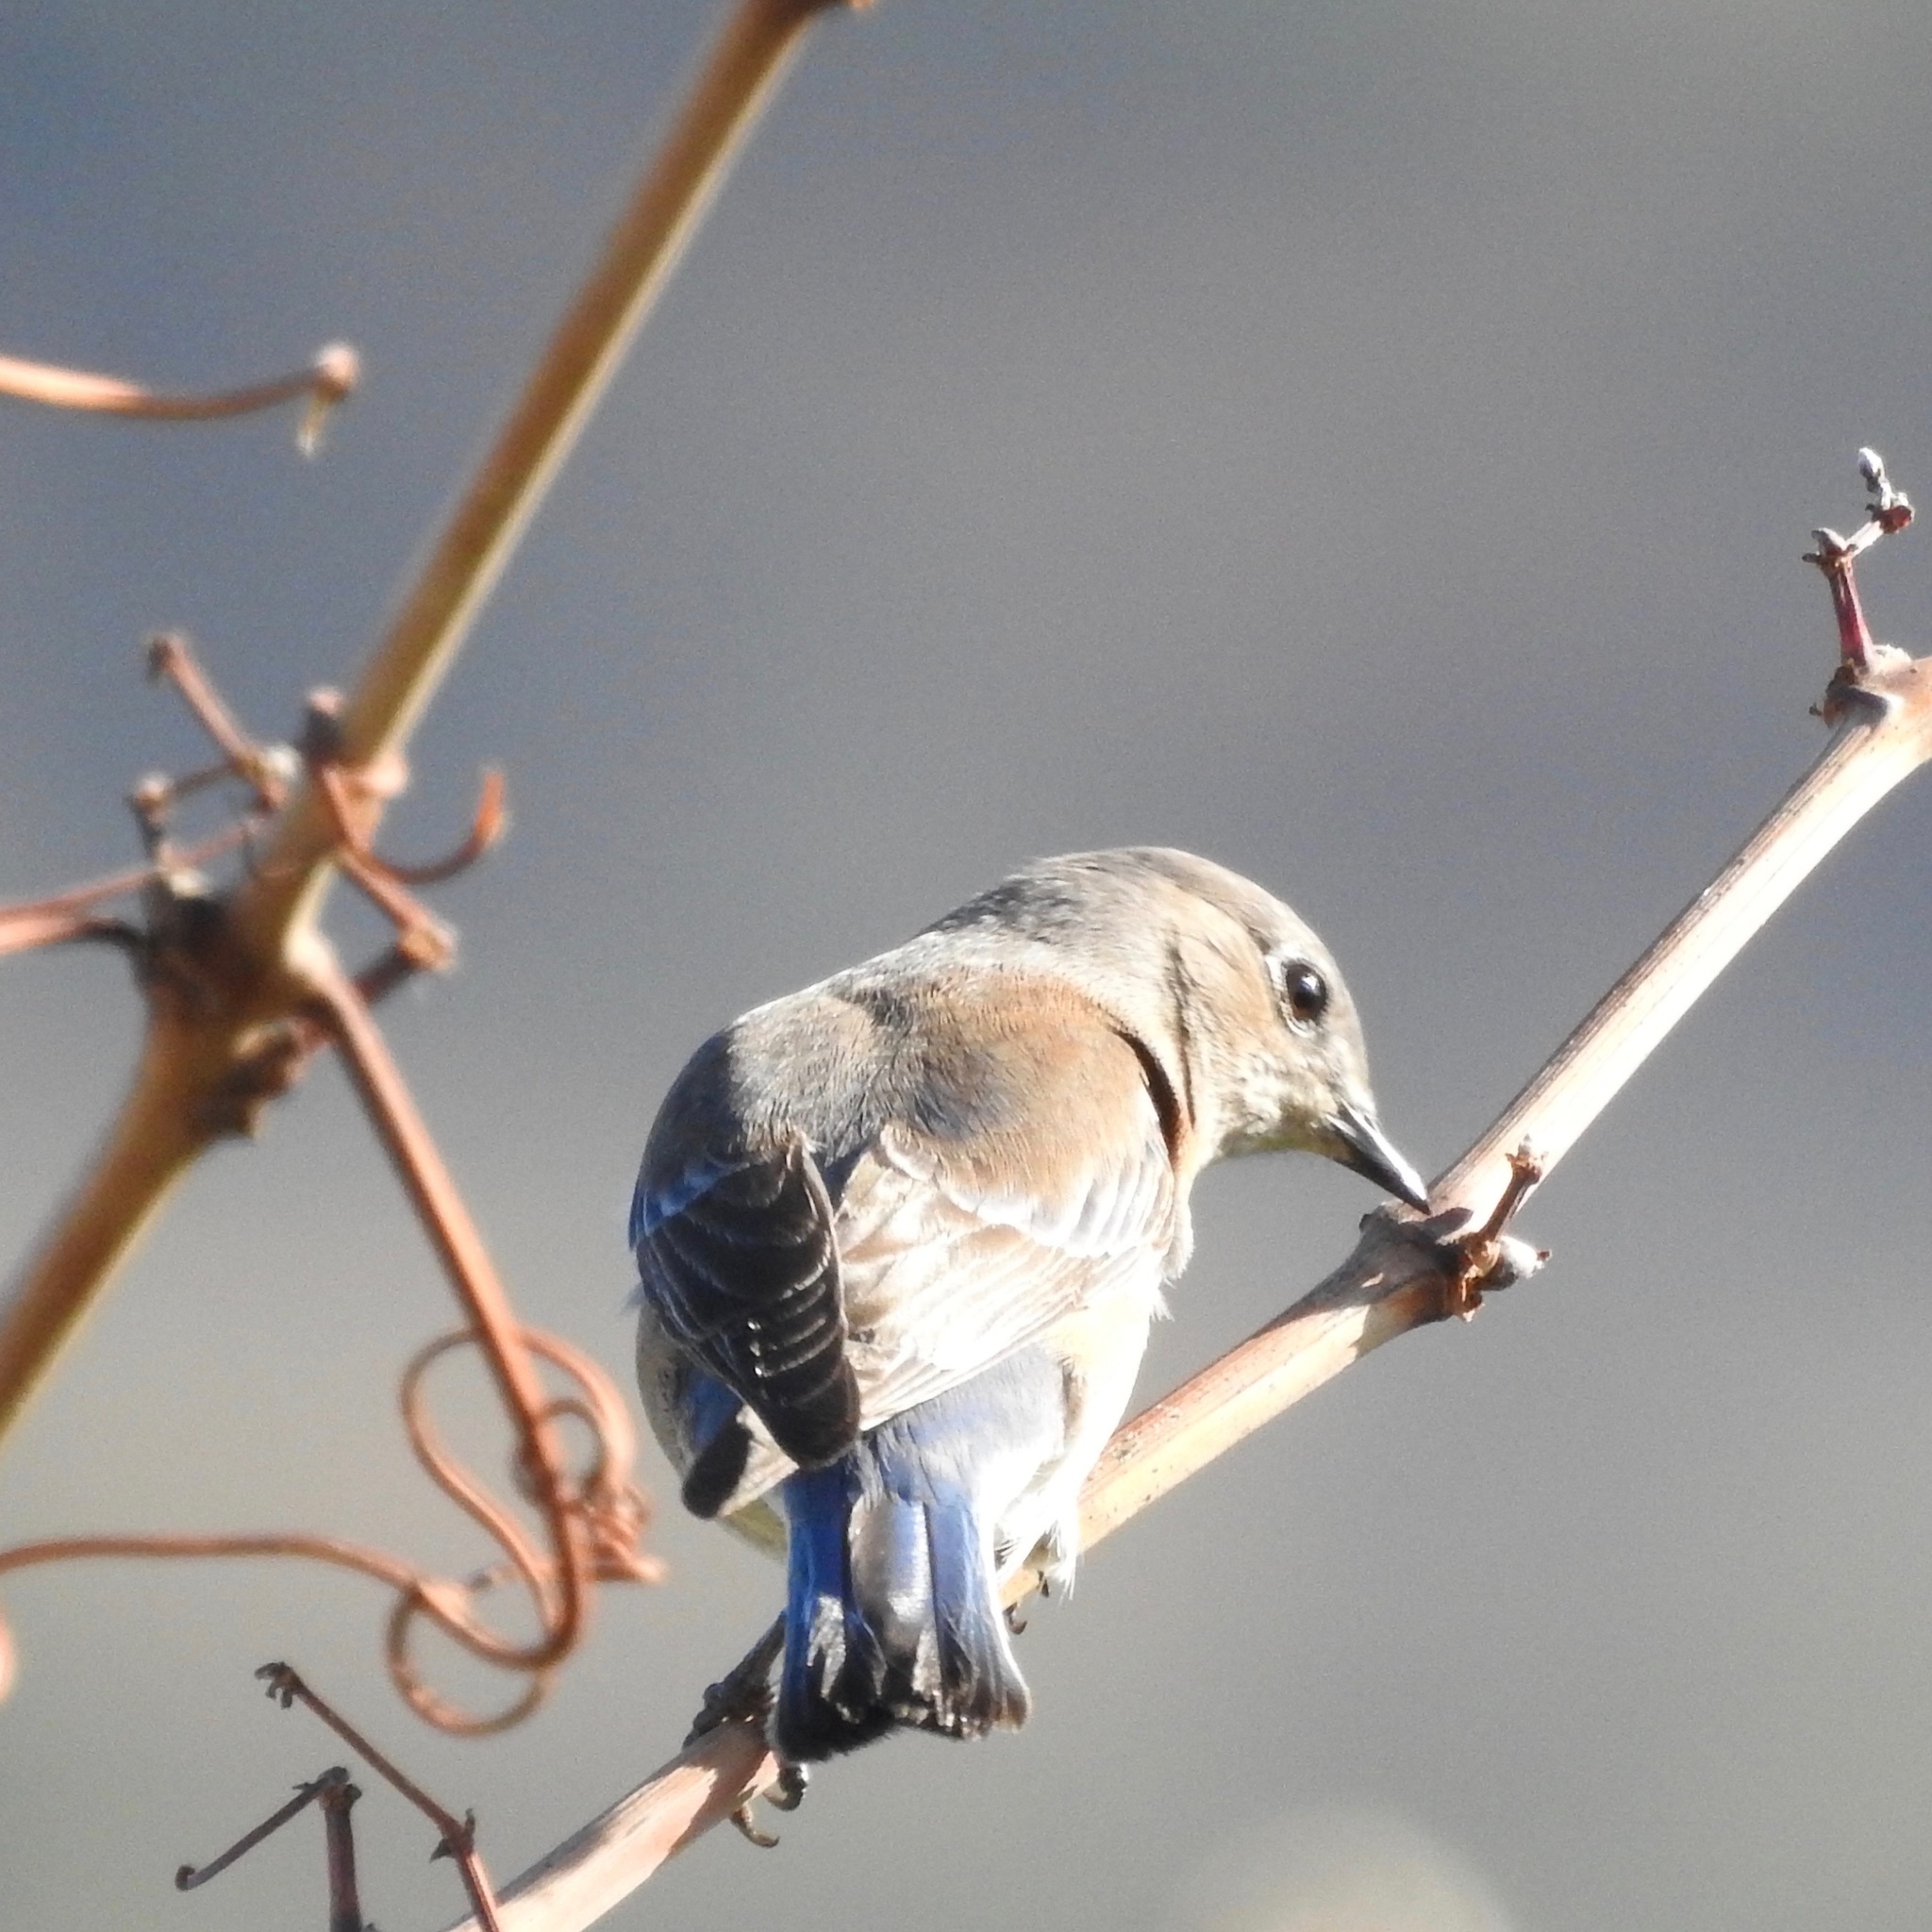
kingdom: Animalia
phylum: Chordata
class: Aves
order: Passeriformes
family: Turdidae
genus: Sialia
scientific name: Sialia mexicana
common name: Western bluebird
